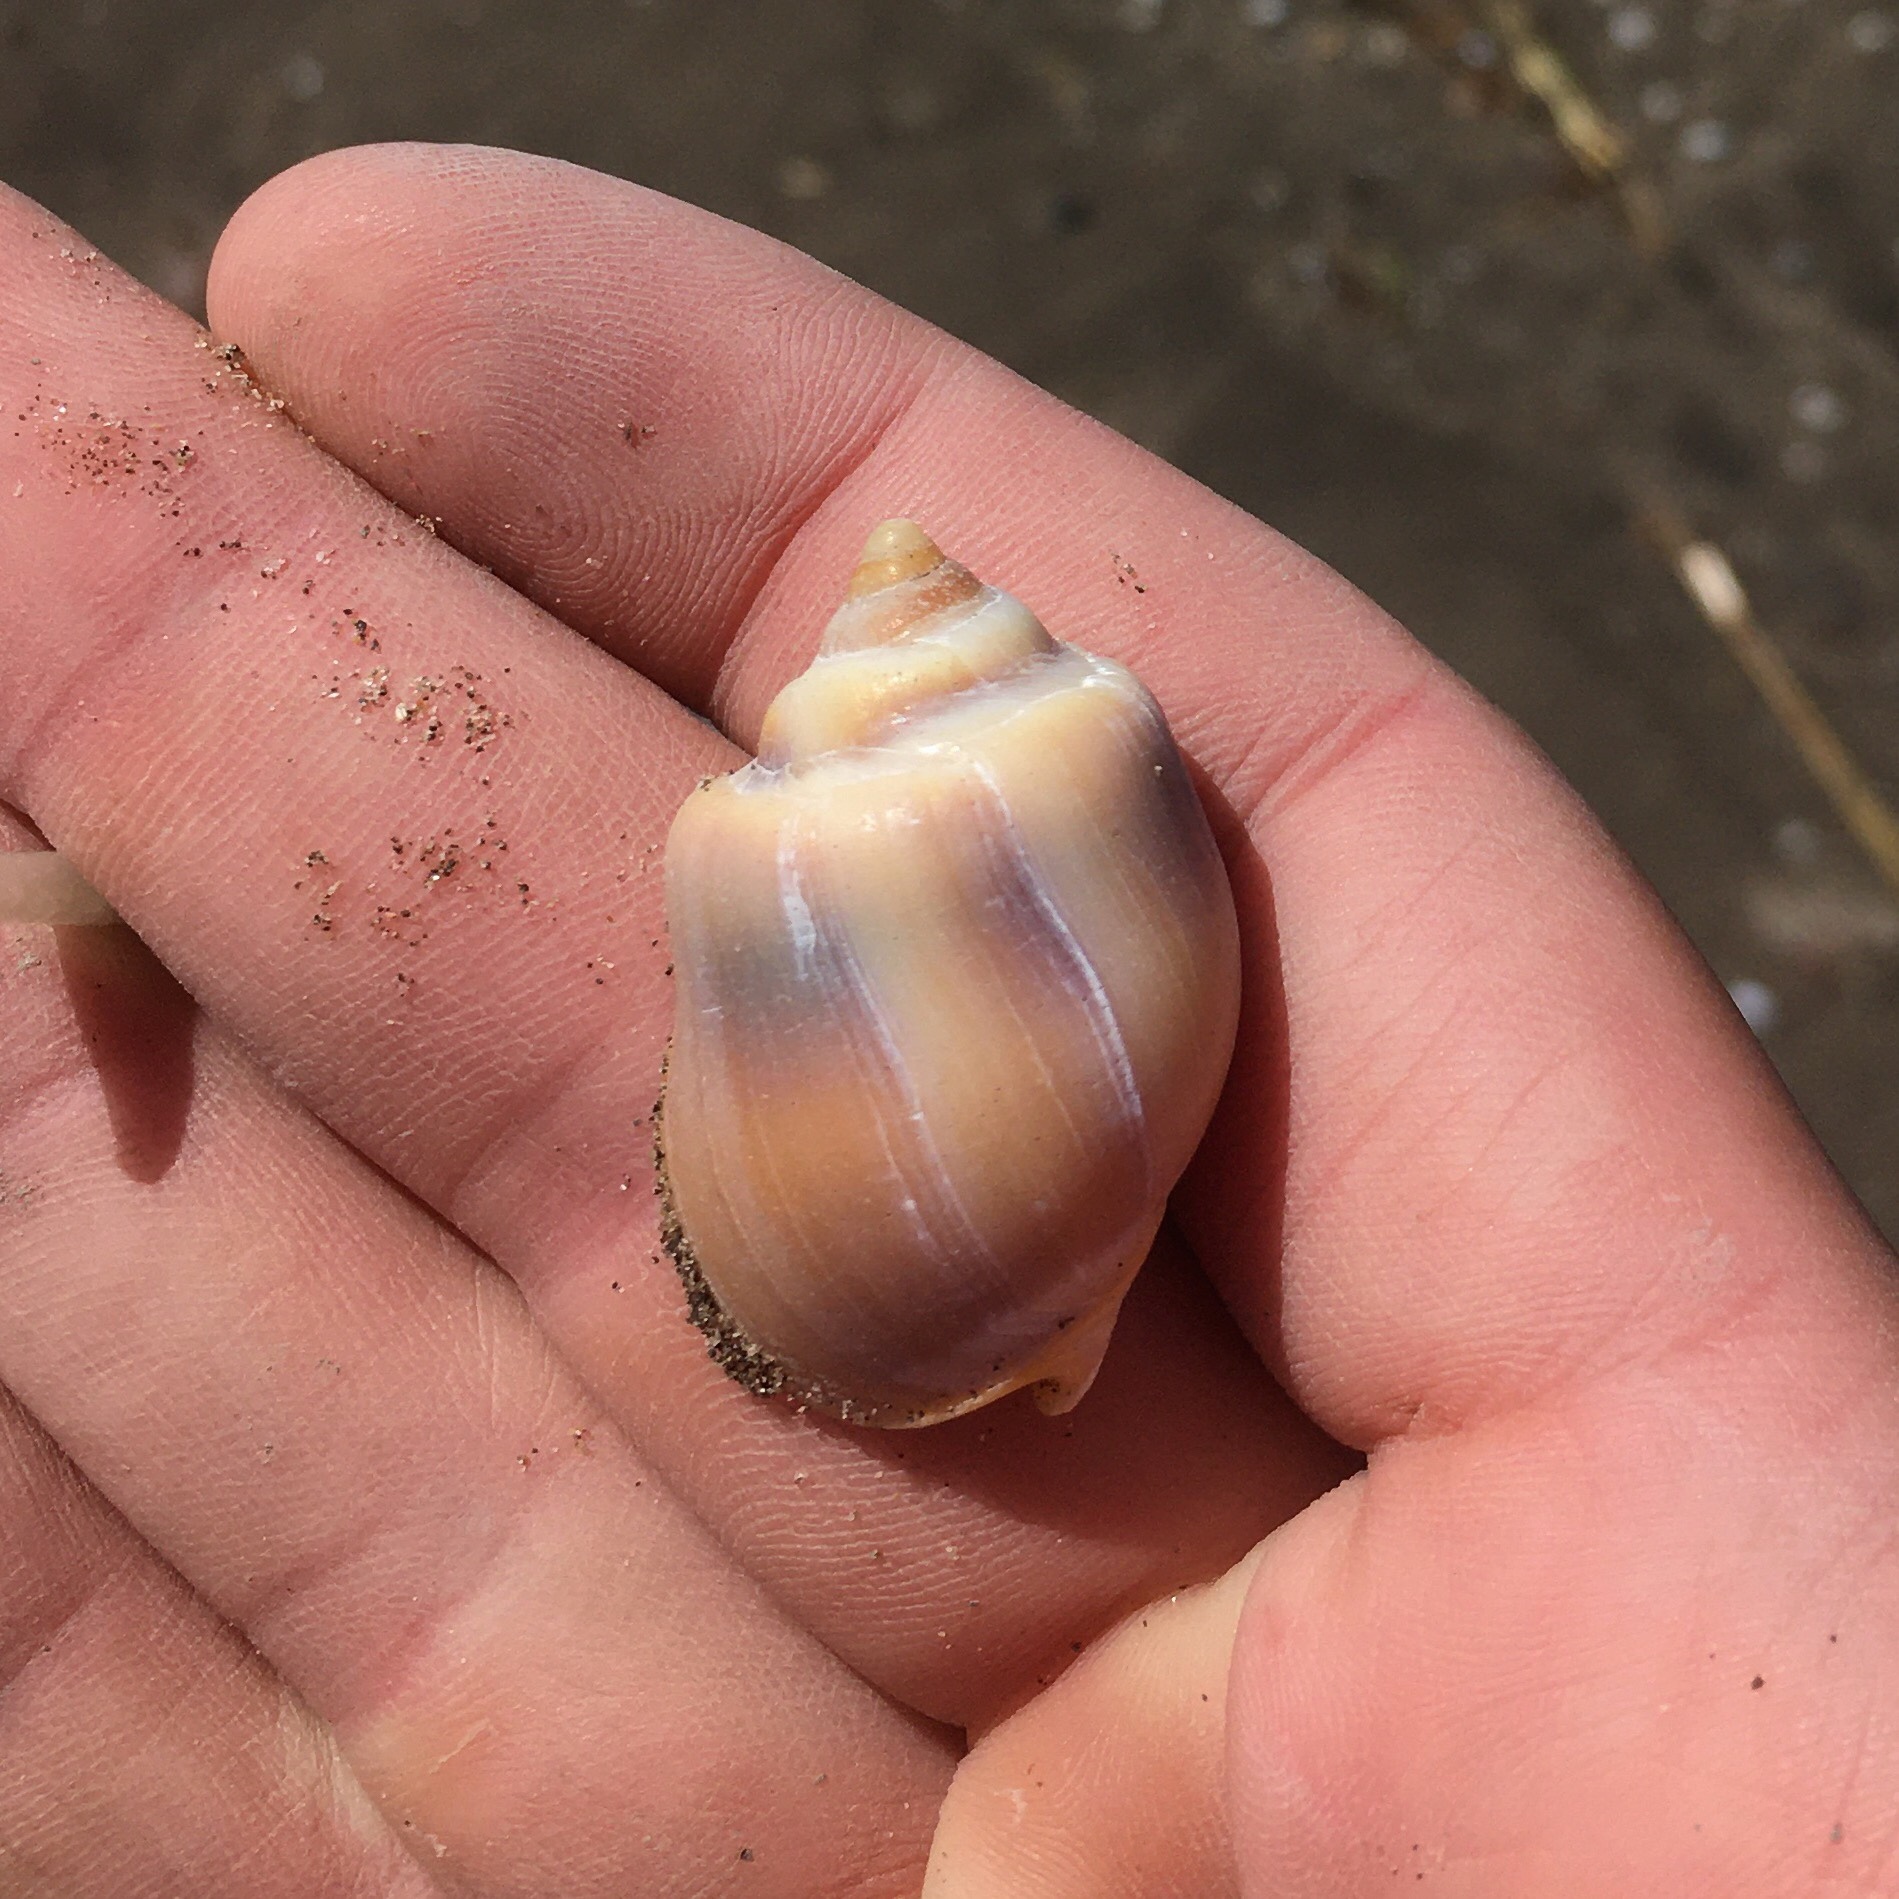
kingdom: Animalia
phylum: Mollusca
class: Gastropoda
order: Neogastropoda
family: Buccinanopsidae
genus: Buccinastrum
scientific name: Buccinastrum deforme
